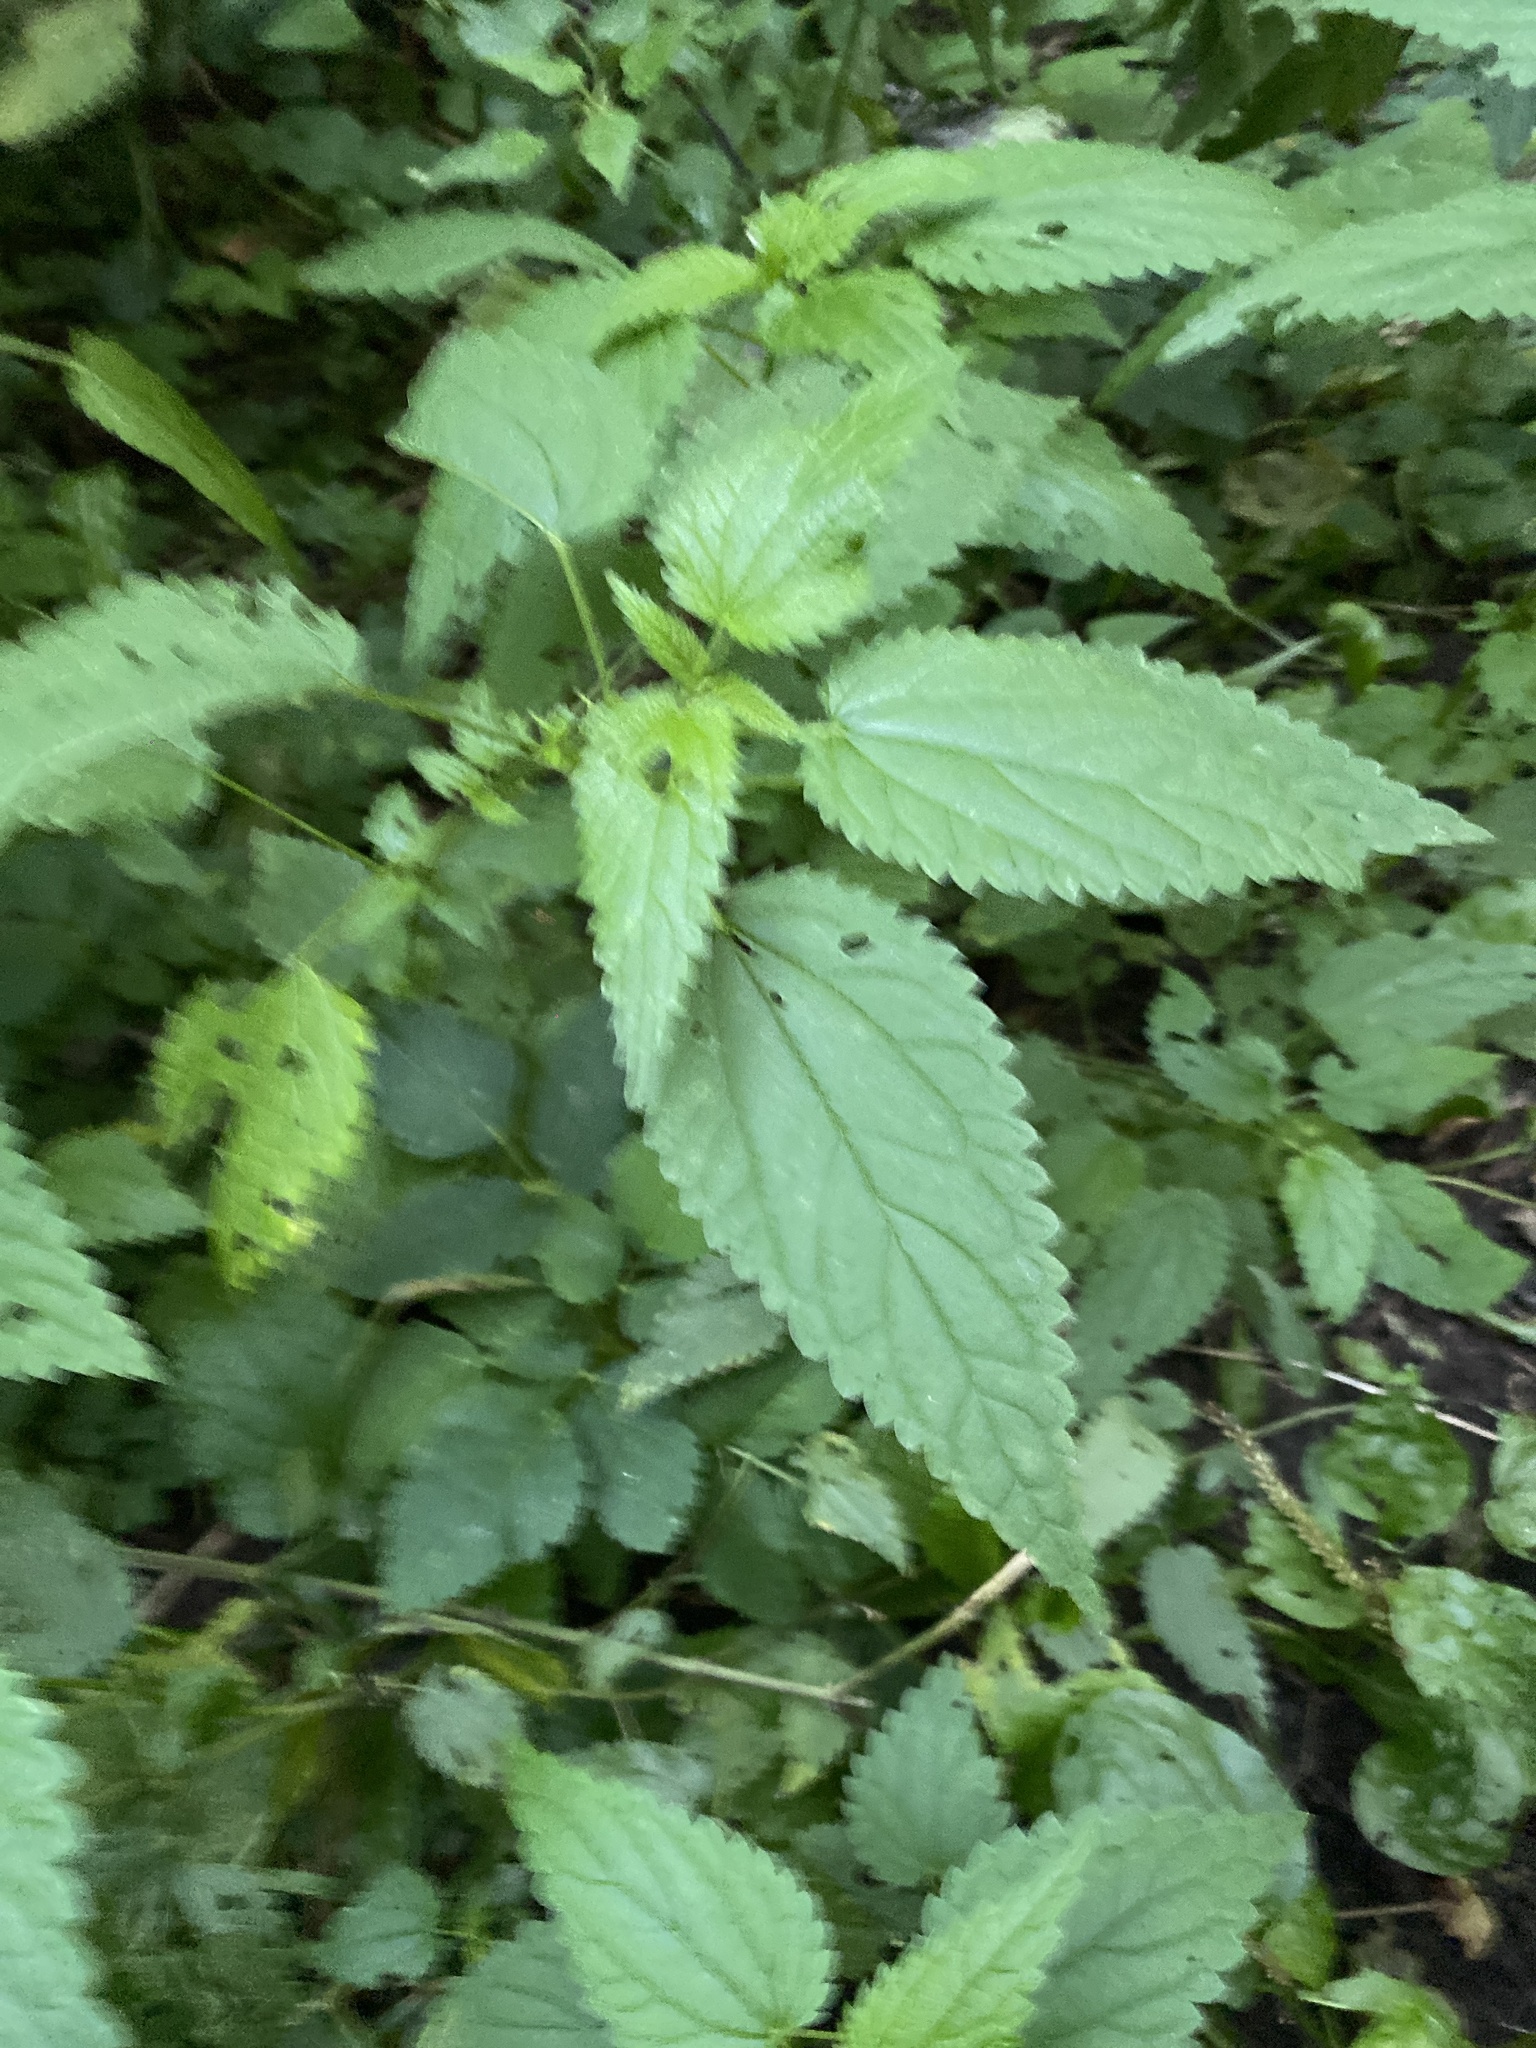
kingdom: Plantae
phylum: Tracheophyta
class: Magnoliopsida
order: Rosales
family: Urticaceae
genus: Urtica
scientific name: Urtica dioica
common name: Common nettle
